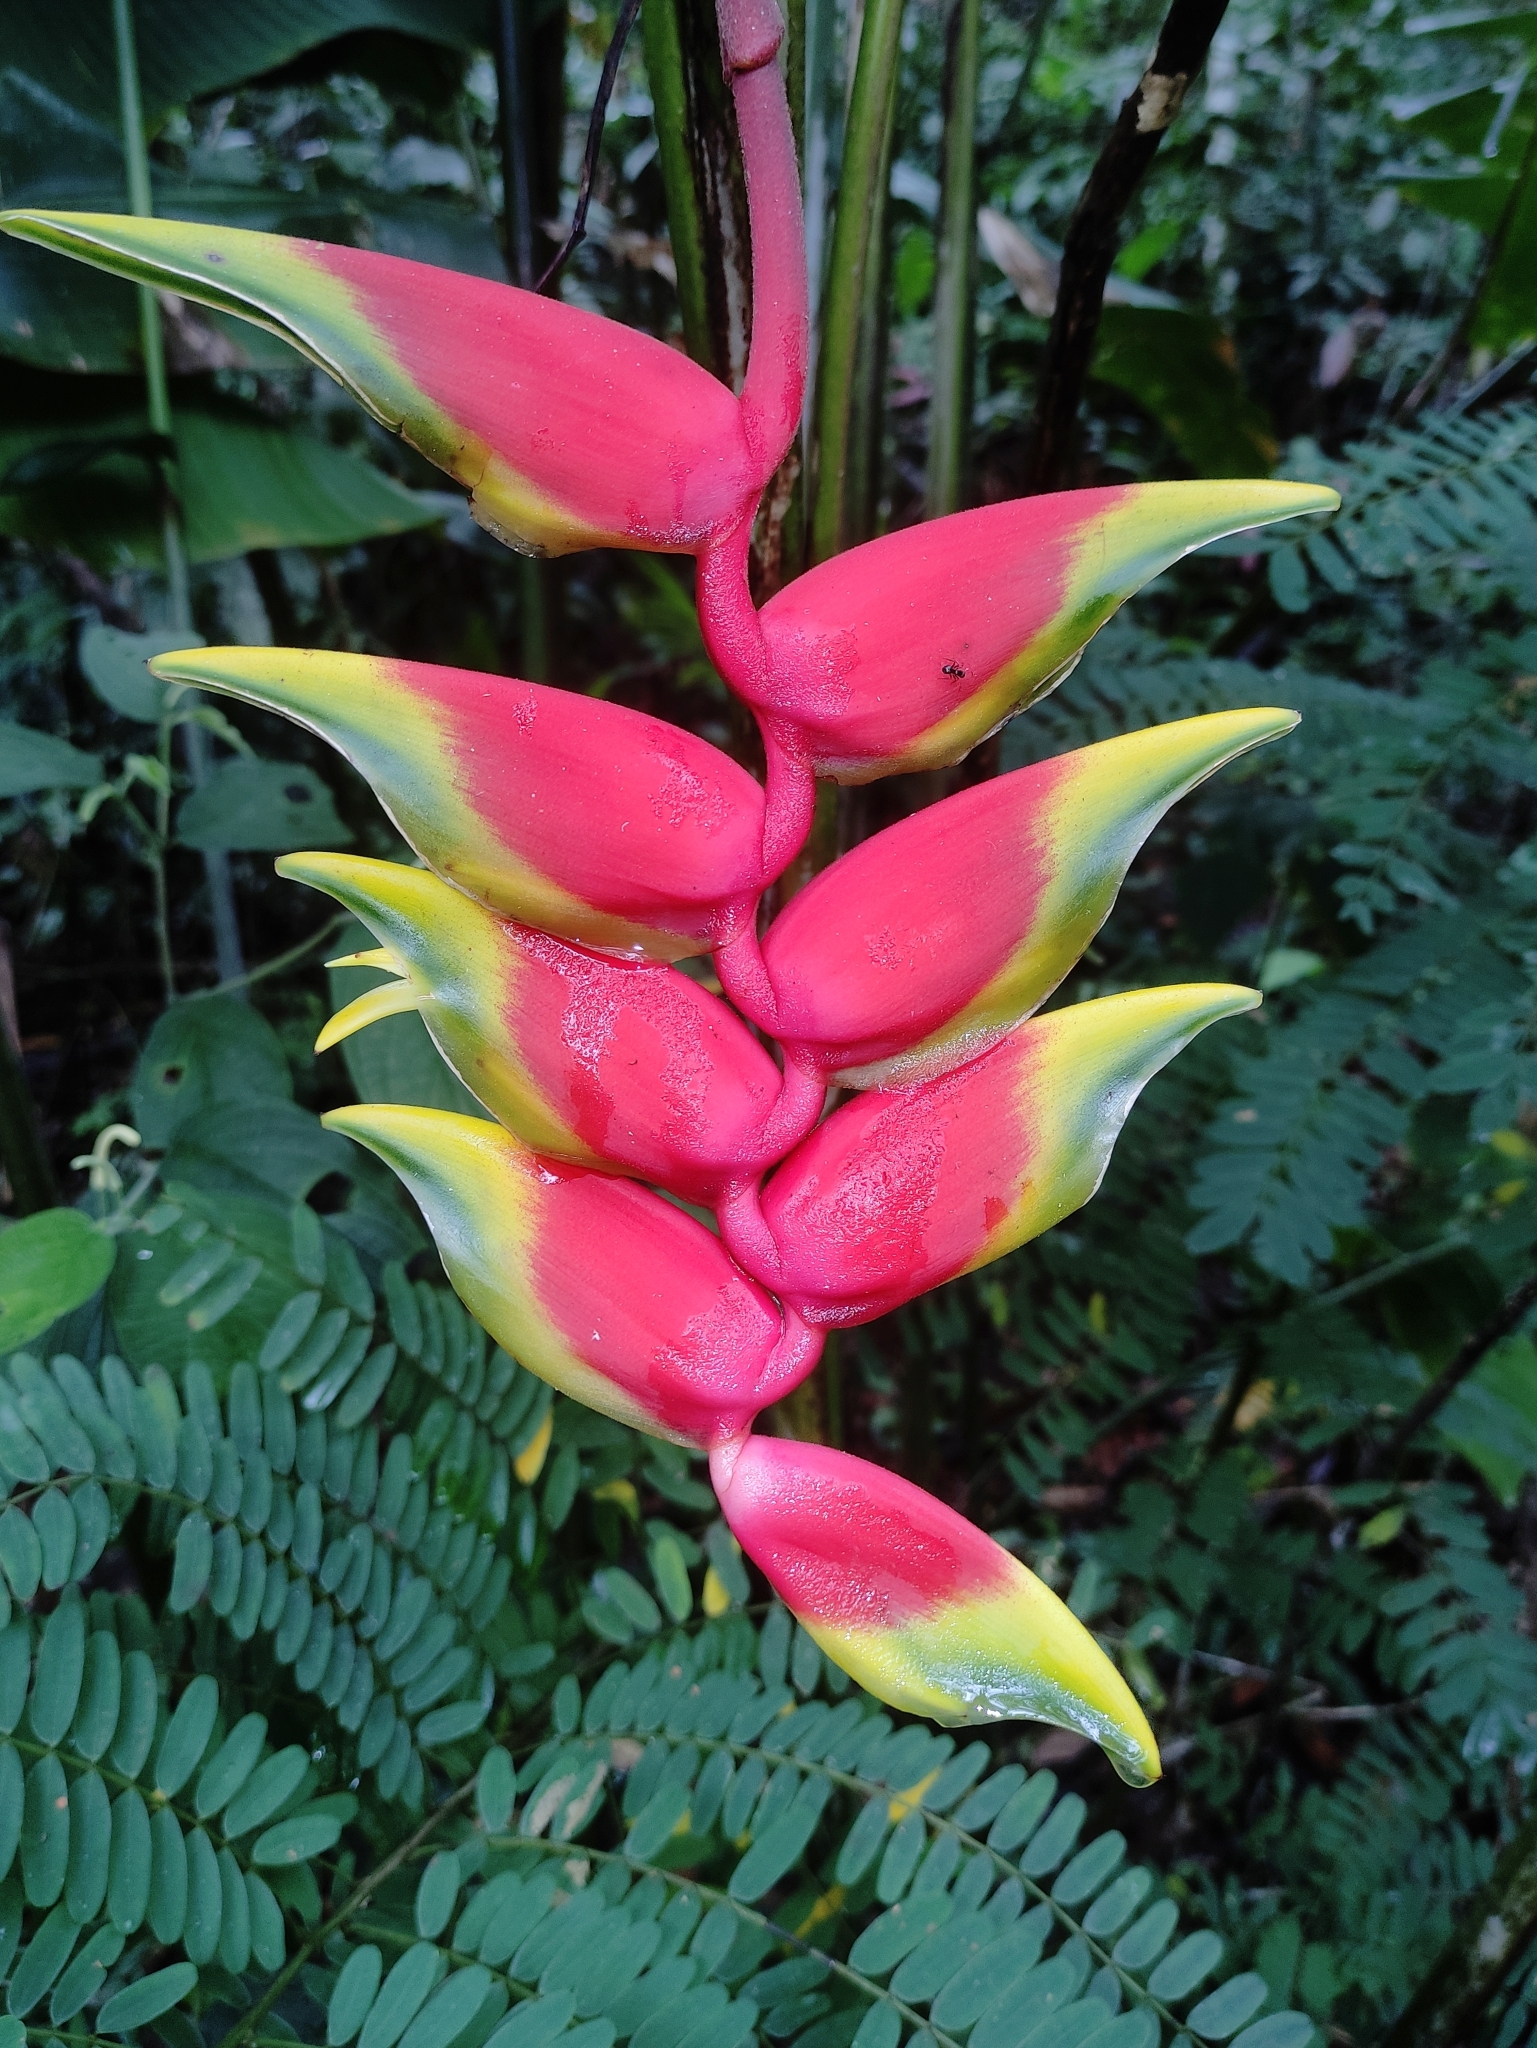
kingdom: Plantae
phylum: Tracheophyta
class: Liliopsida
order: Zingiberales
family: Heliconiaceae
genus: Heliconia
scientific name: Heliconia rostrata
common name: False bird of paradise
